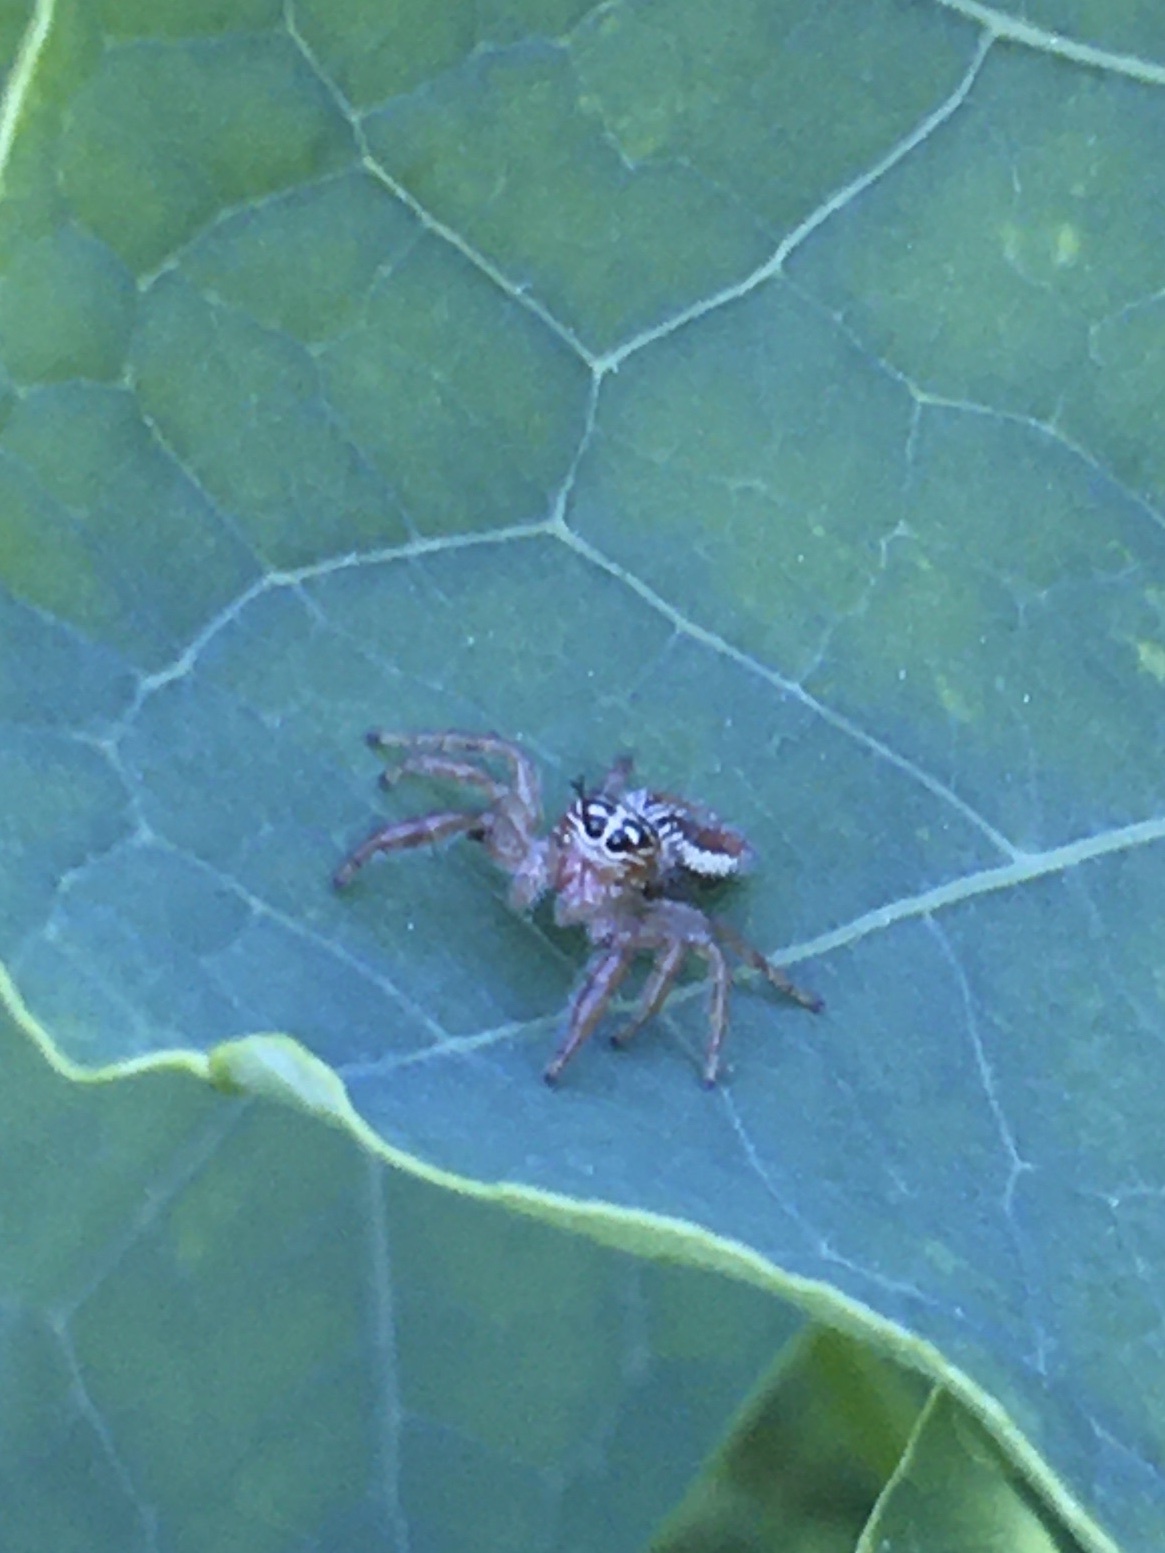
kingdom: Animalia
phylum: Arthropoda
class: Arachnida
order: Araneae
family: Salticidae
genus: Thyene
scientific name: Thyene inflata
